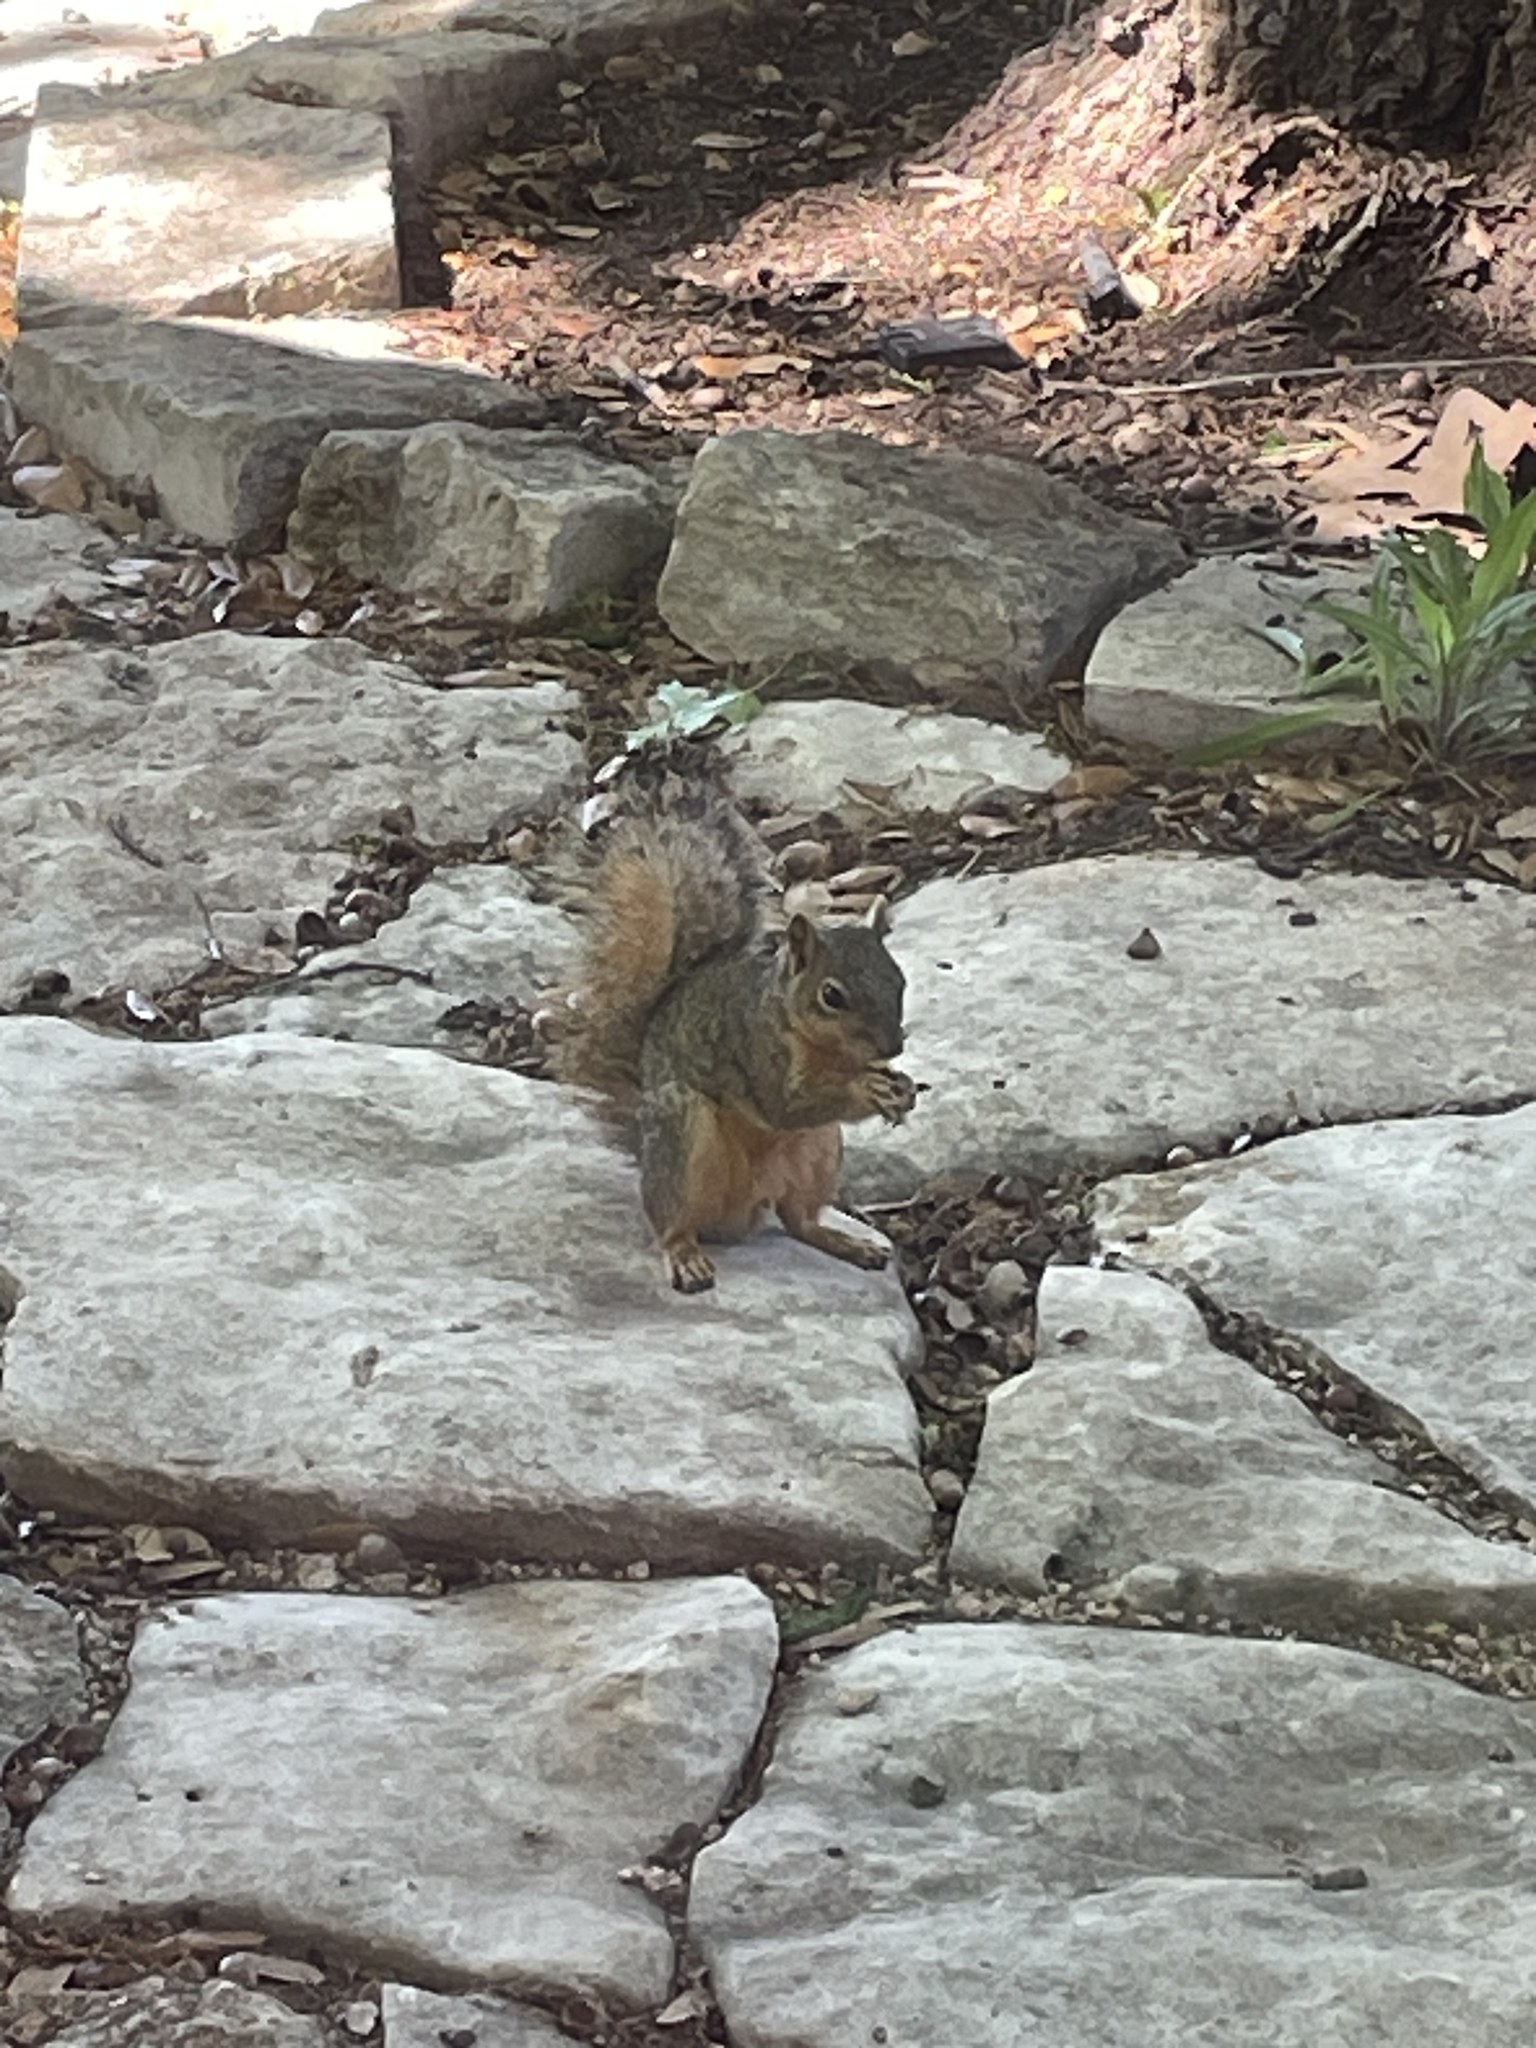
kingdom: Animalia
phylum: Chordata
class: Mammalia
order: Rodentia
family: Sciuridae
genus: Sciurus
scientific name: Sciurus niger
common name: Fox squirrel
